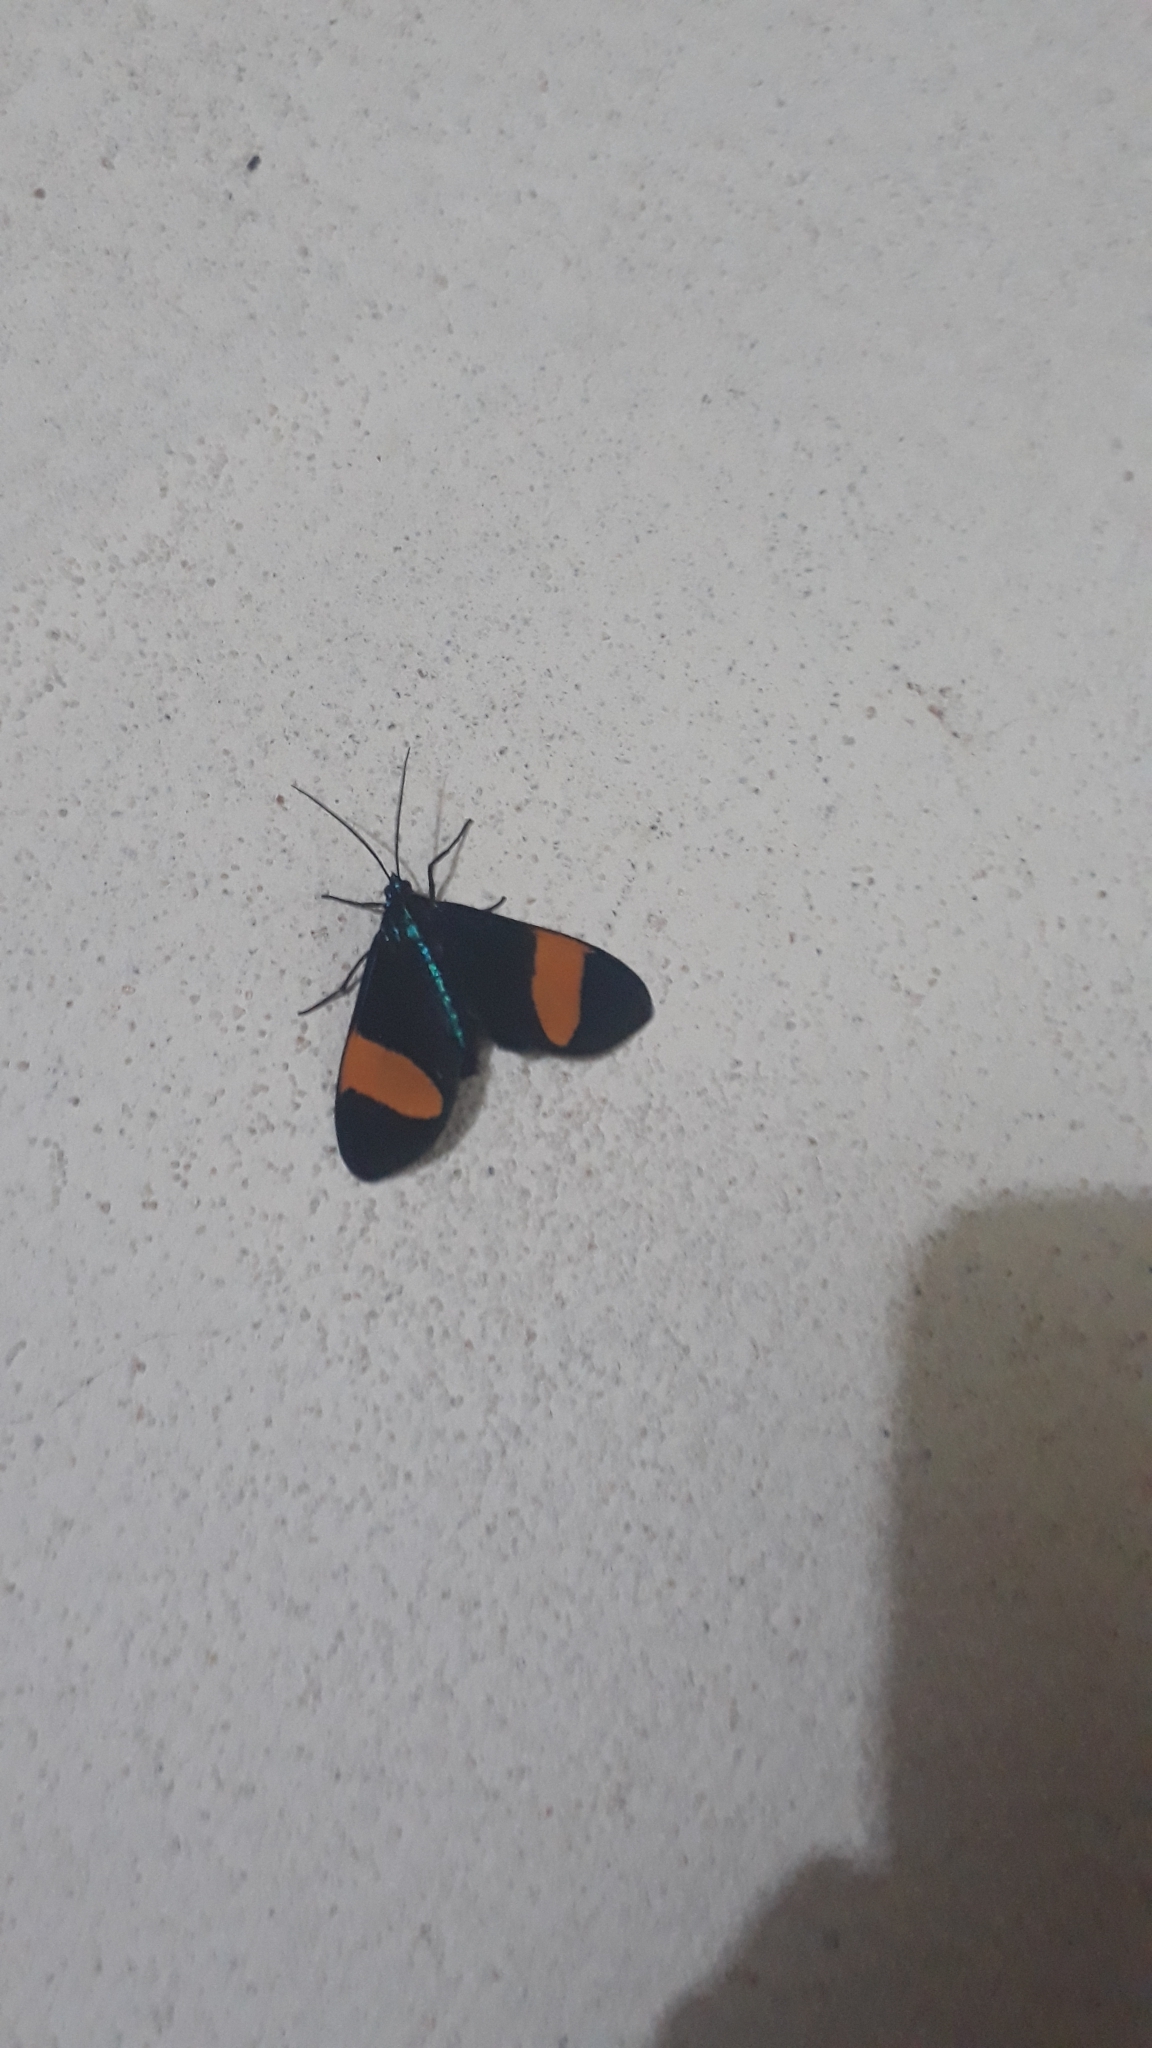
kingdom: Animalia
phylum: Arthropoda
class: Insecta
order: Lepidoptera
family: Erebidae
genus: Cyanopepla
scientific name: Cyanopepla similis
